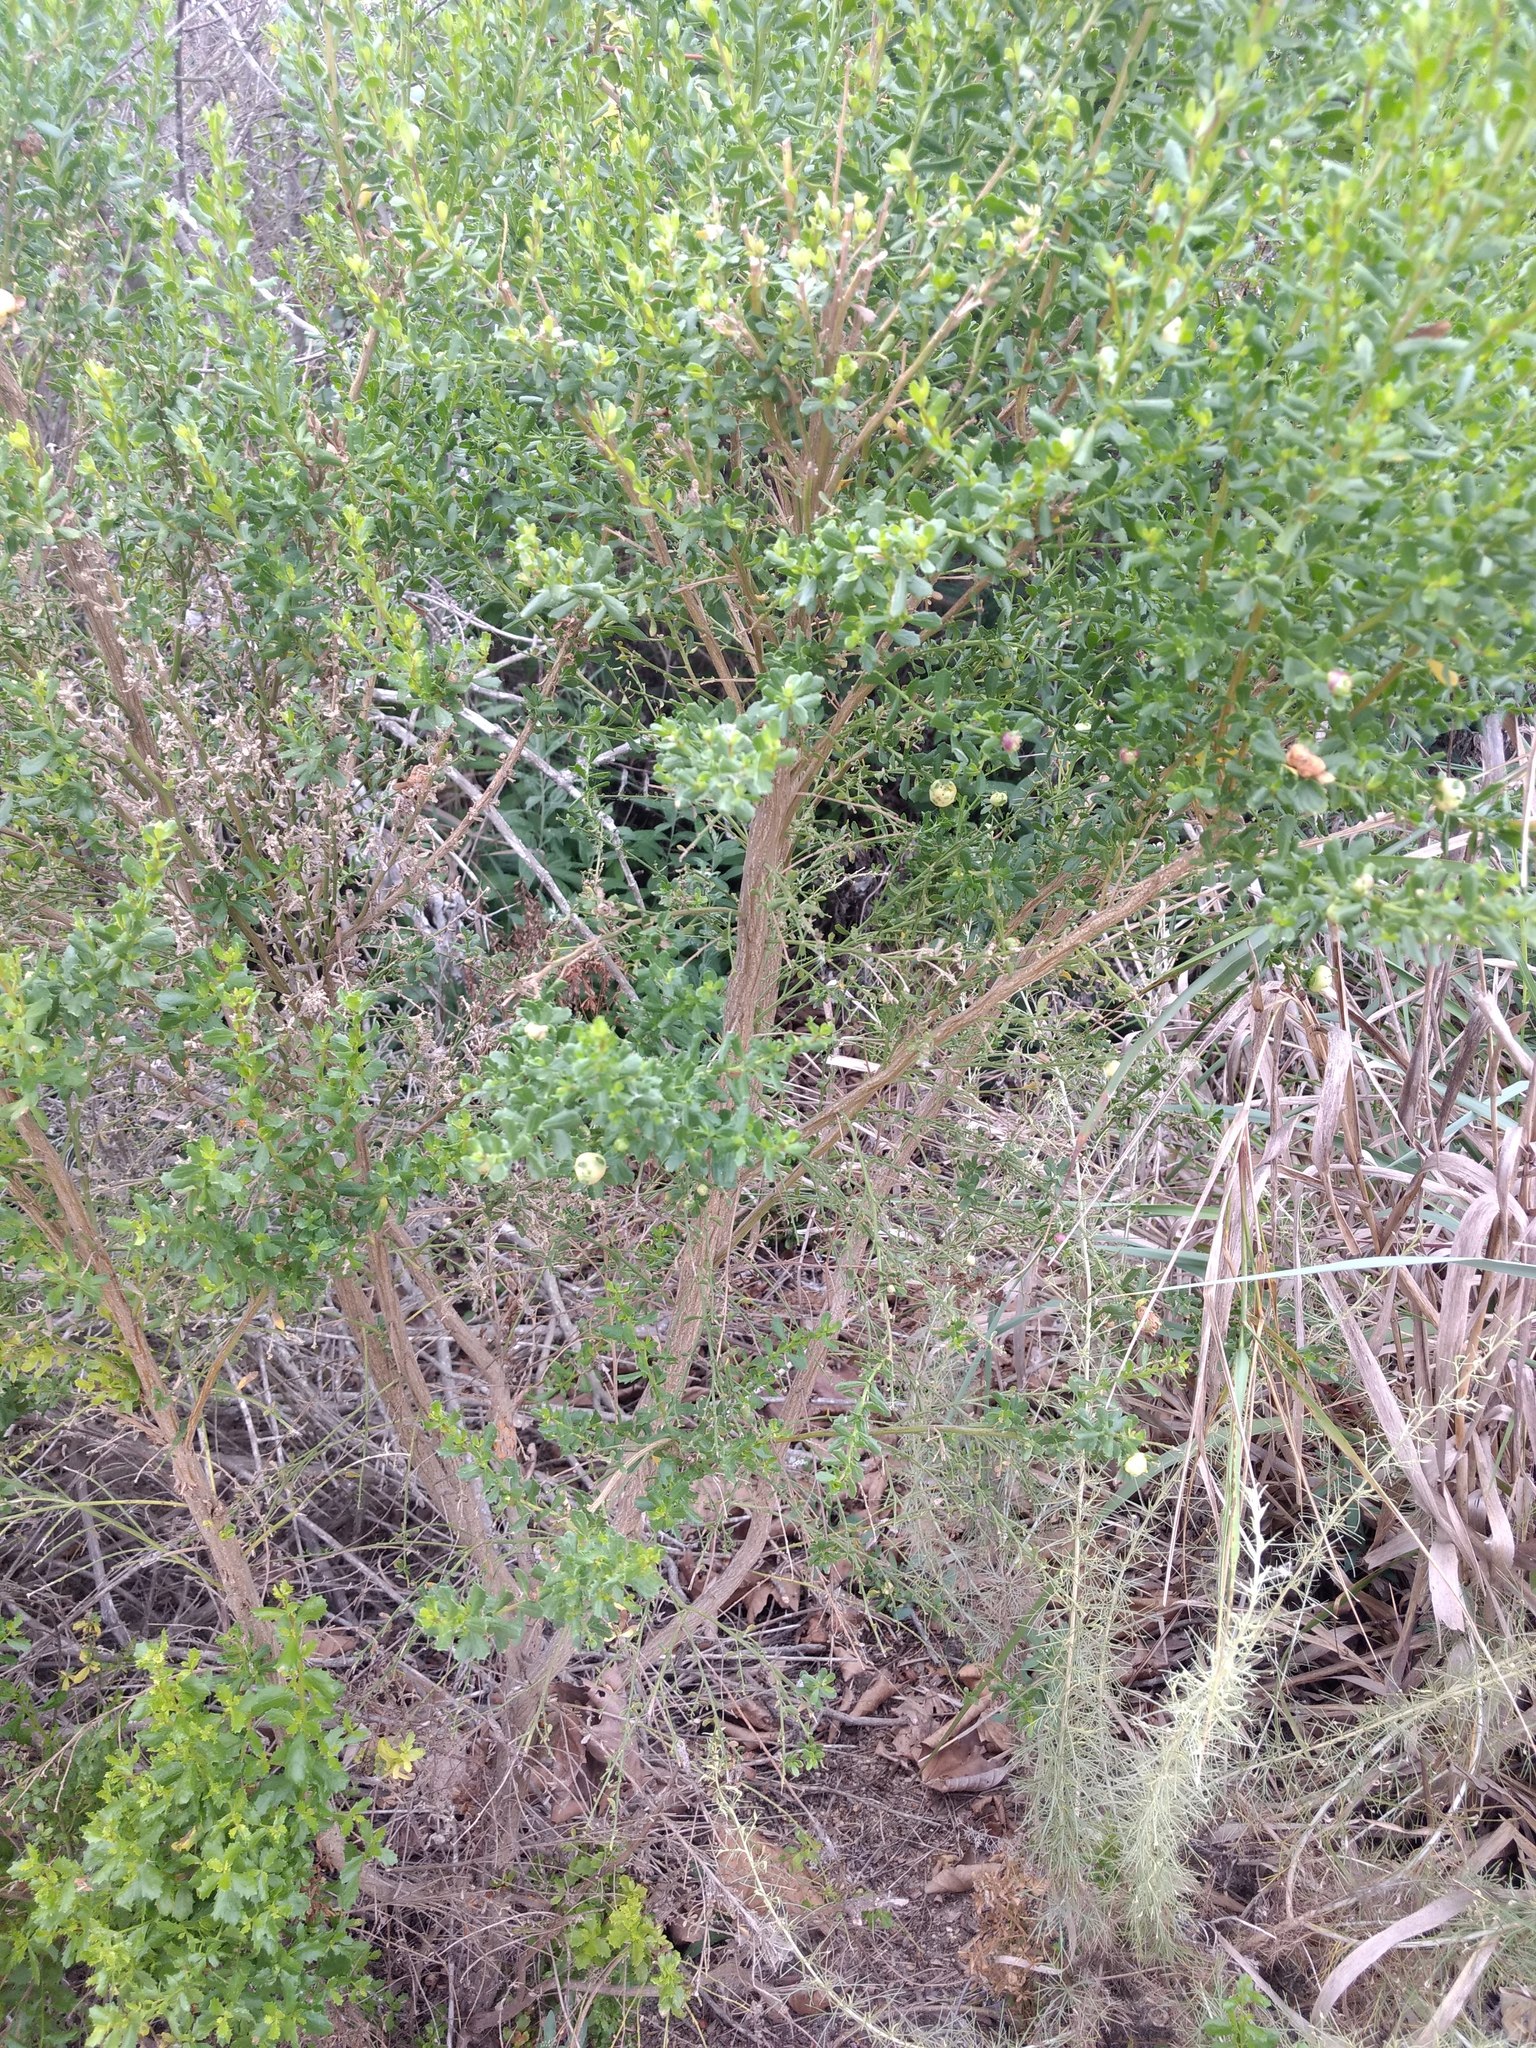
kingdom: Plantae
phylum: Tracheophyta
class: Magnoliopsida
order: Asterales
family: Asteraceae
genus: Baccharis
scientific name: Baccharis pilularis
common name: Coyotebrush
